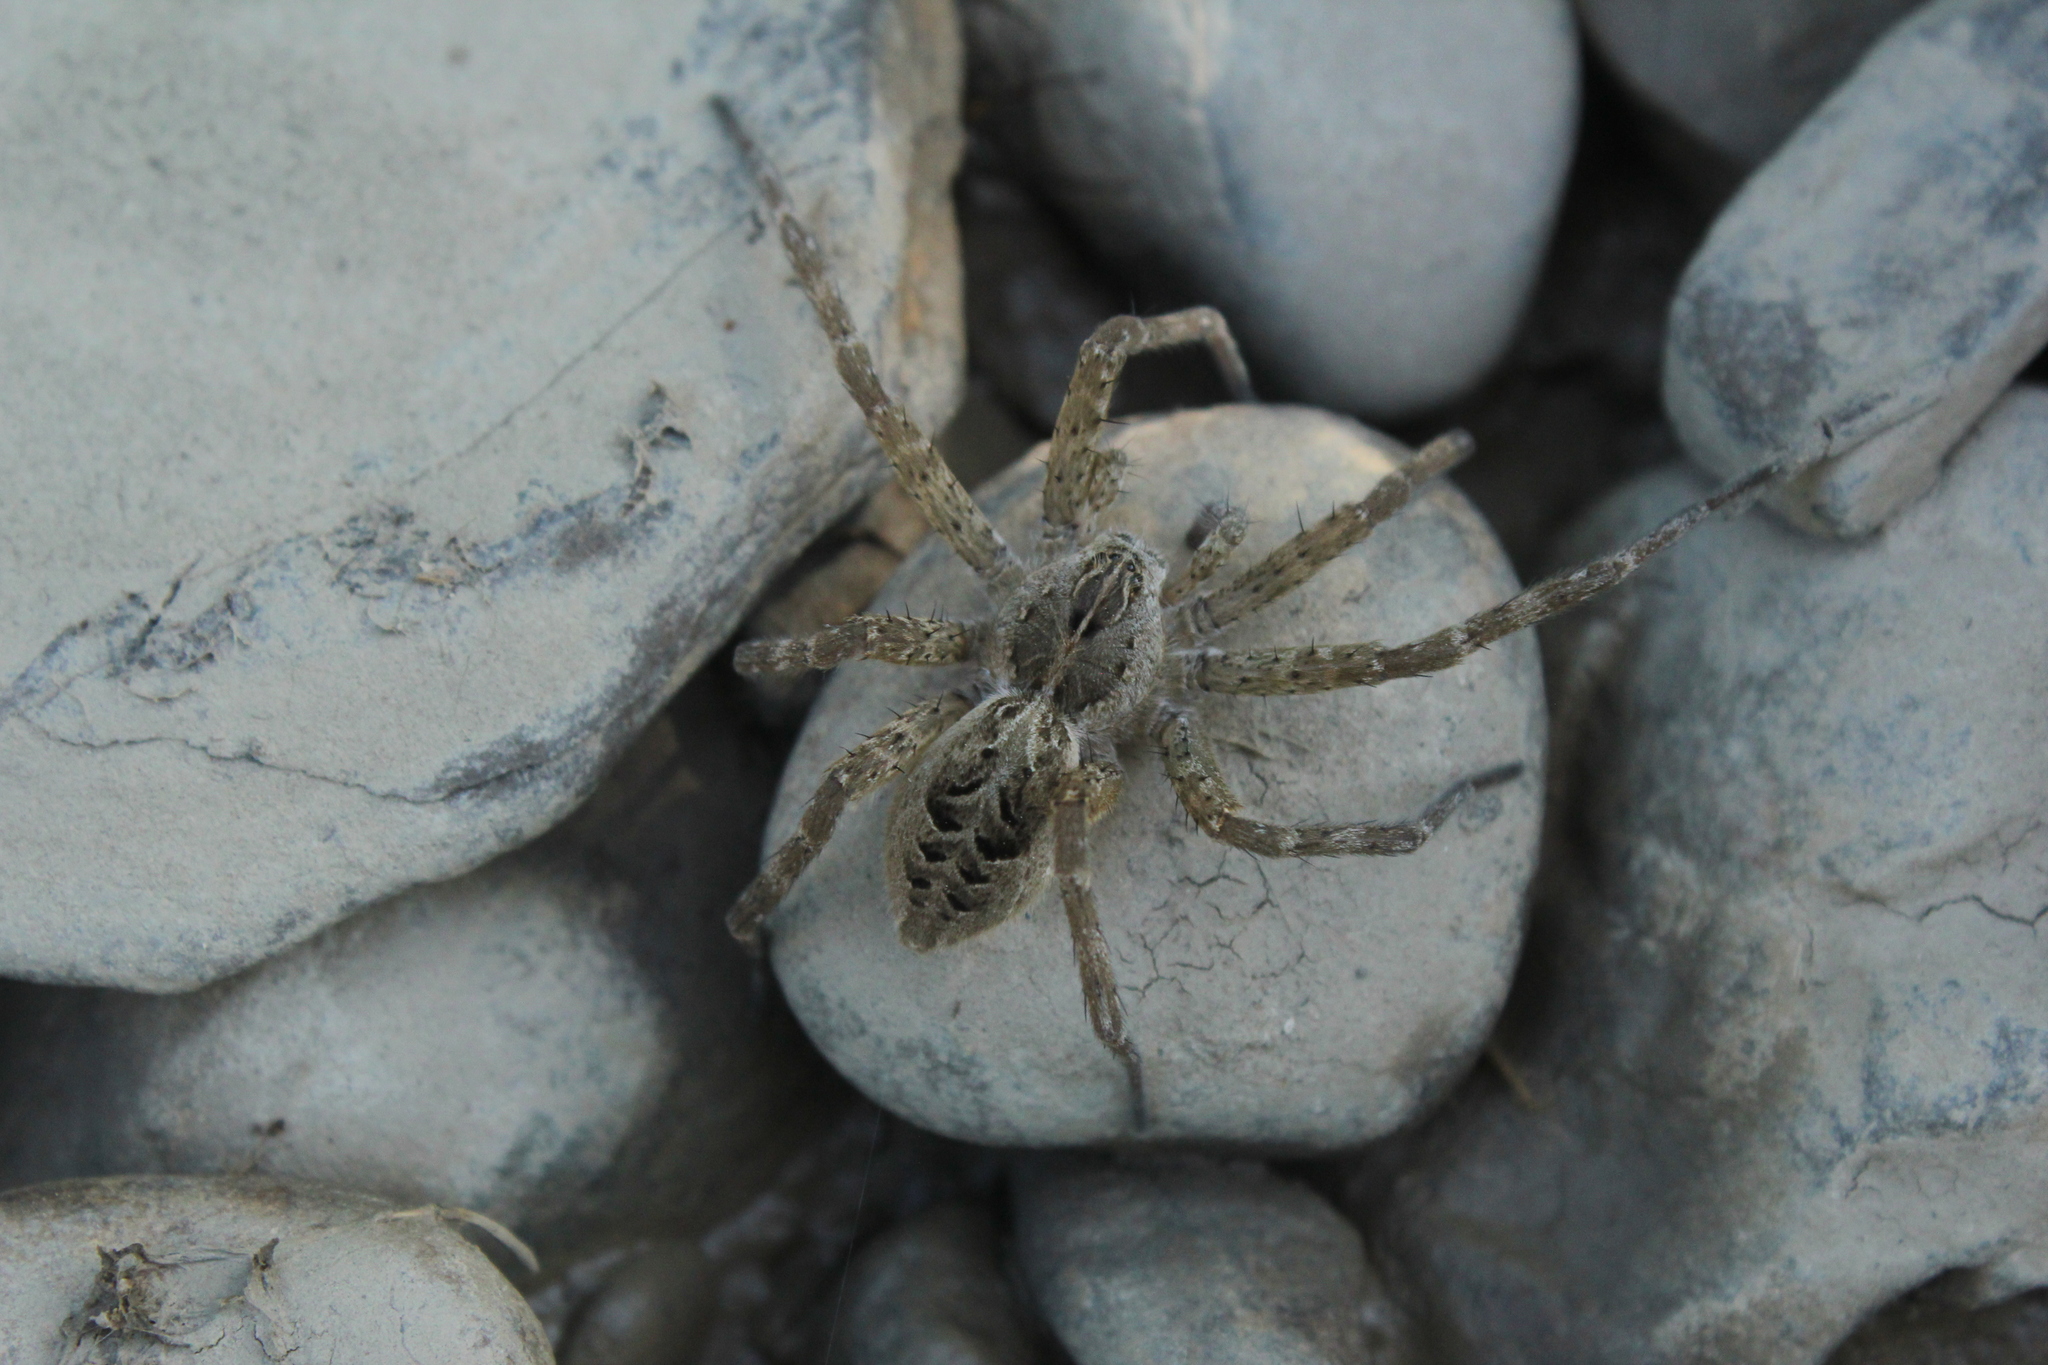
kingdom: Animalia
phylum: Arthropoda
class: Arachnida
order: Araneae
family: Pisauridae
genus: Dolomedes
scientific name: Dolomedes scriptus
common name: Striped fishing spider
